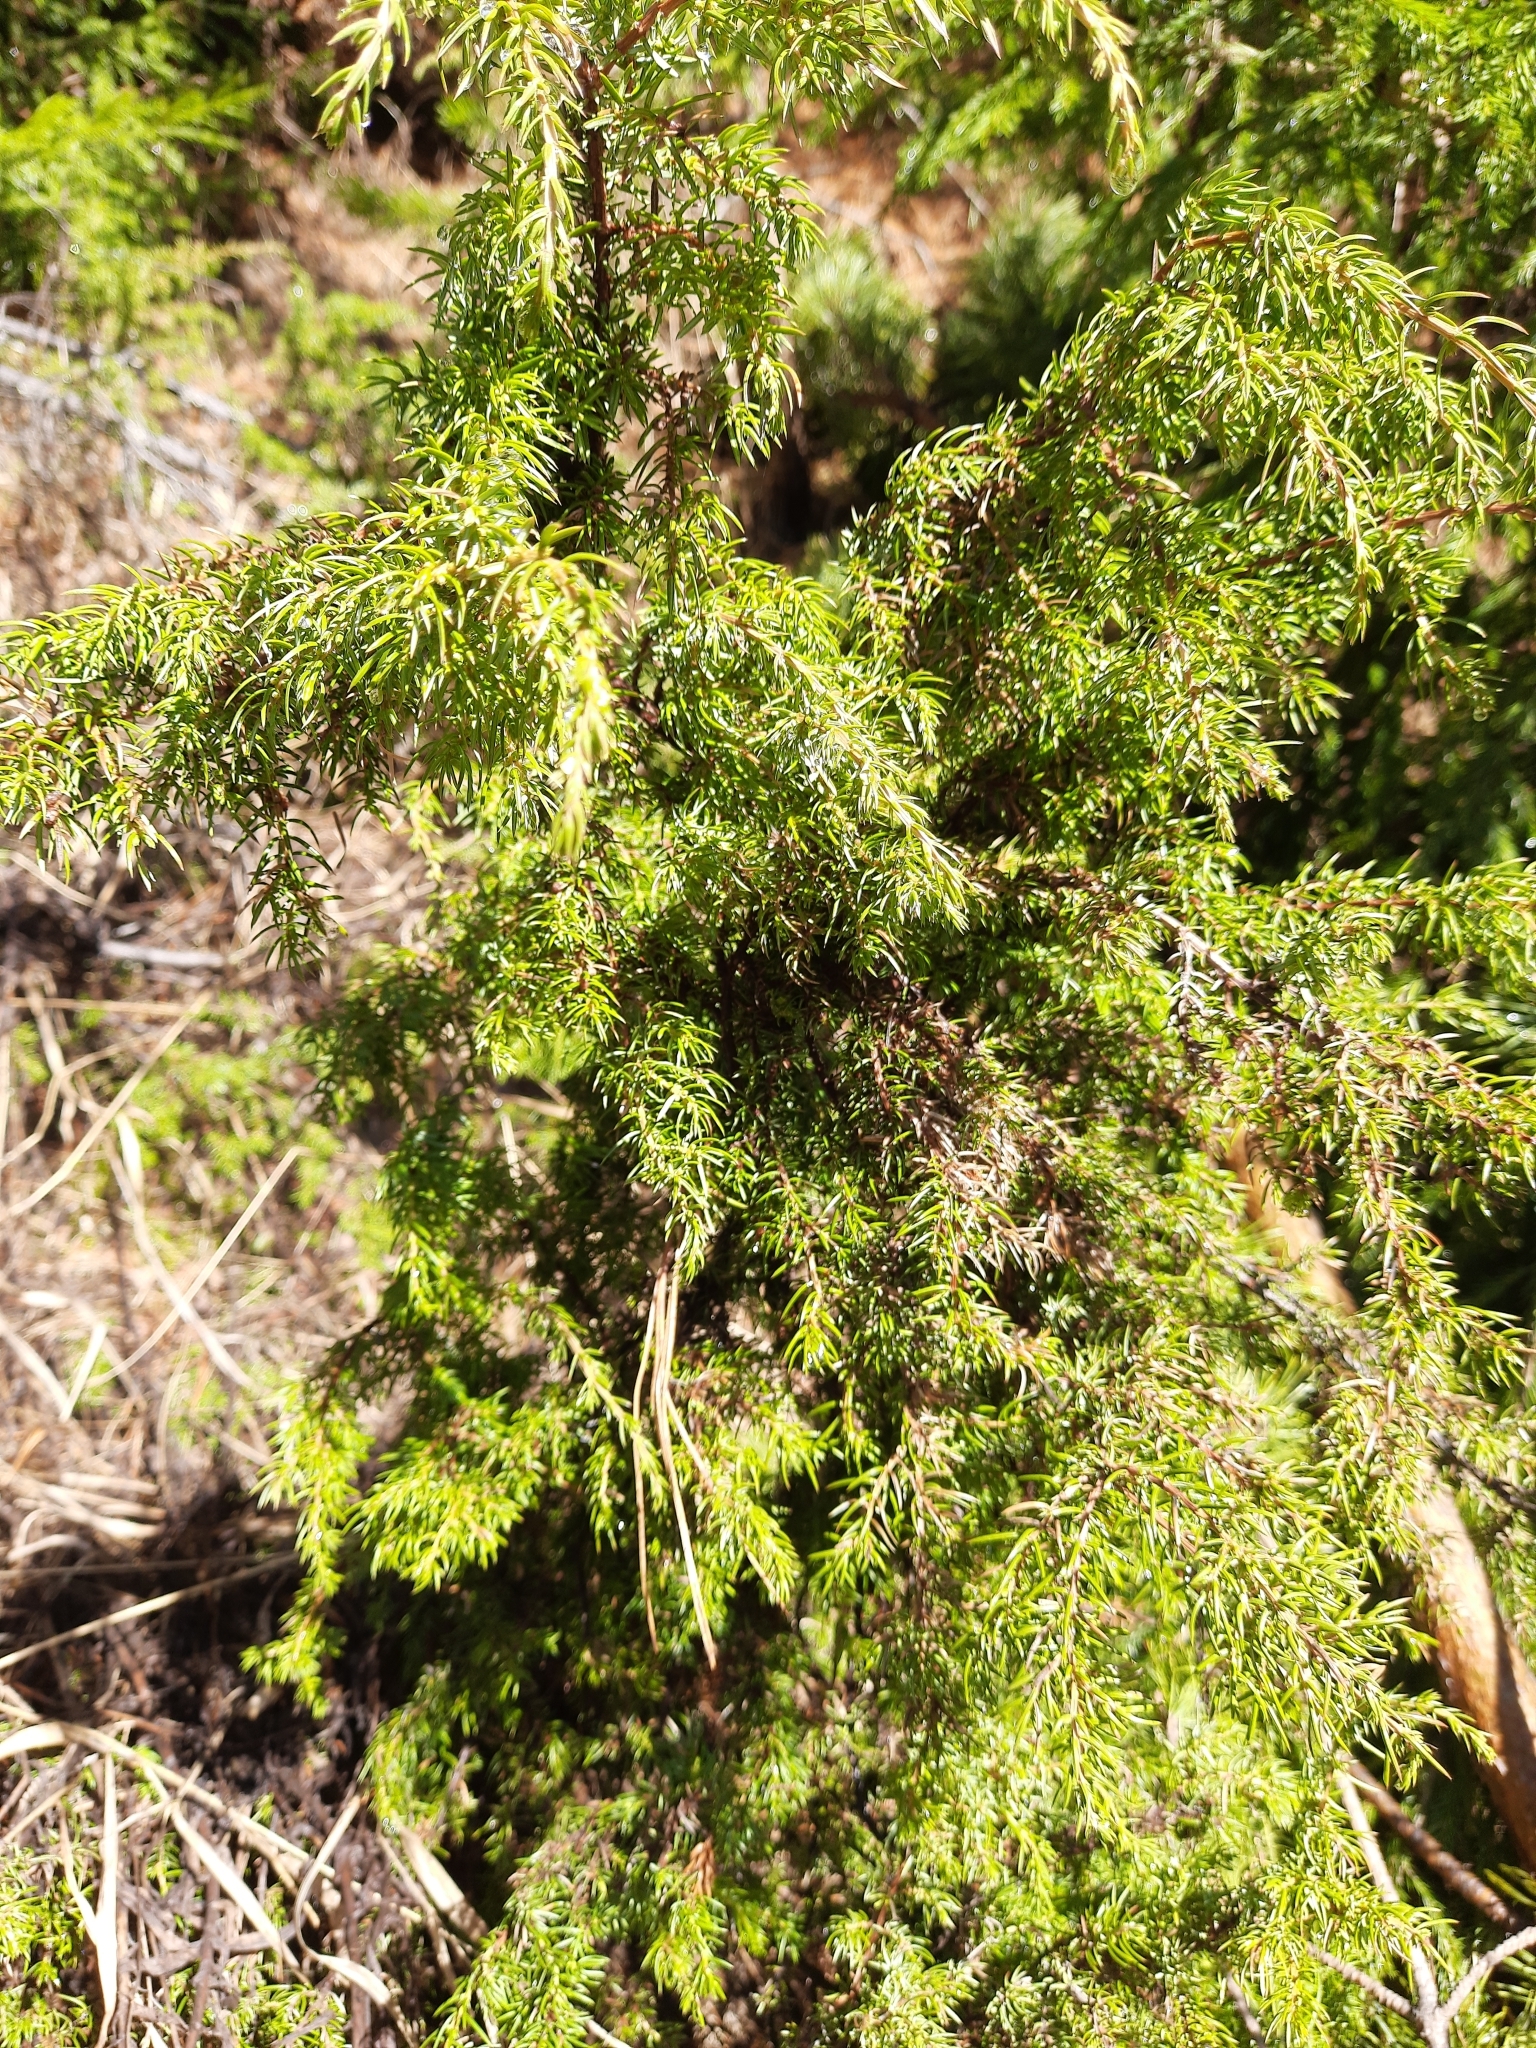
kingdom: Plantae
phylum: Tracheophyta
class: Pinopsida
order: Pinales
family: Cupressaceae
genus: Juniperus
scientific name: Juniperus communis
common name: Common juniper
